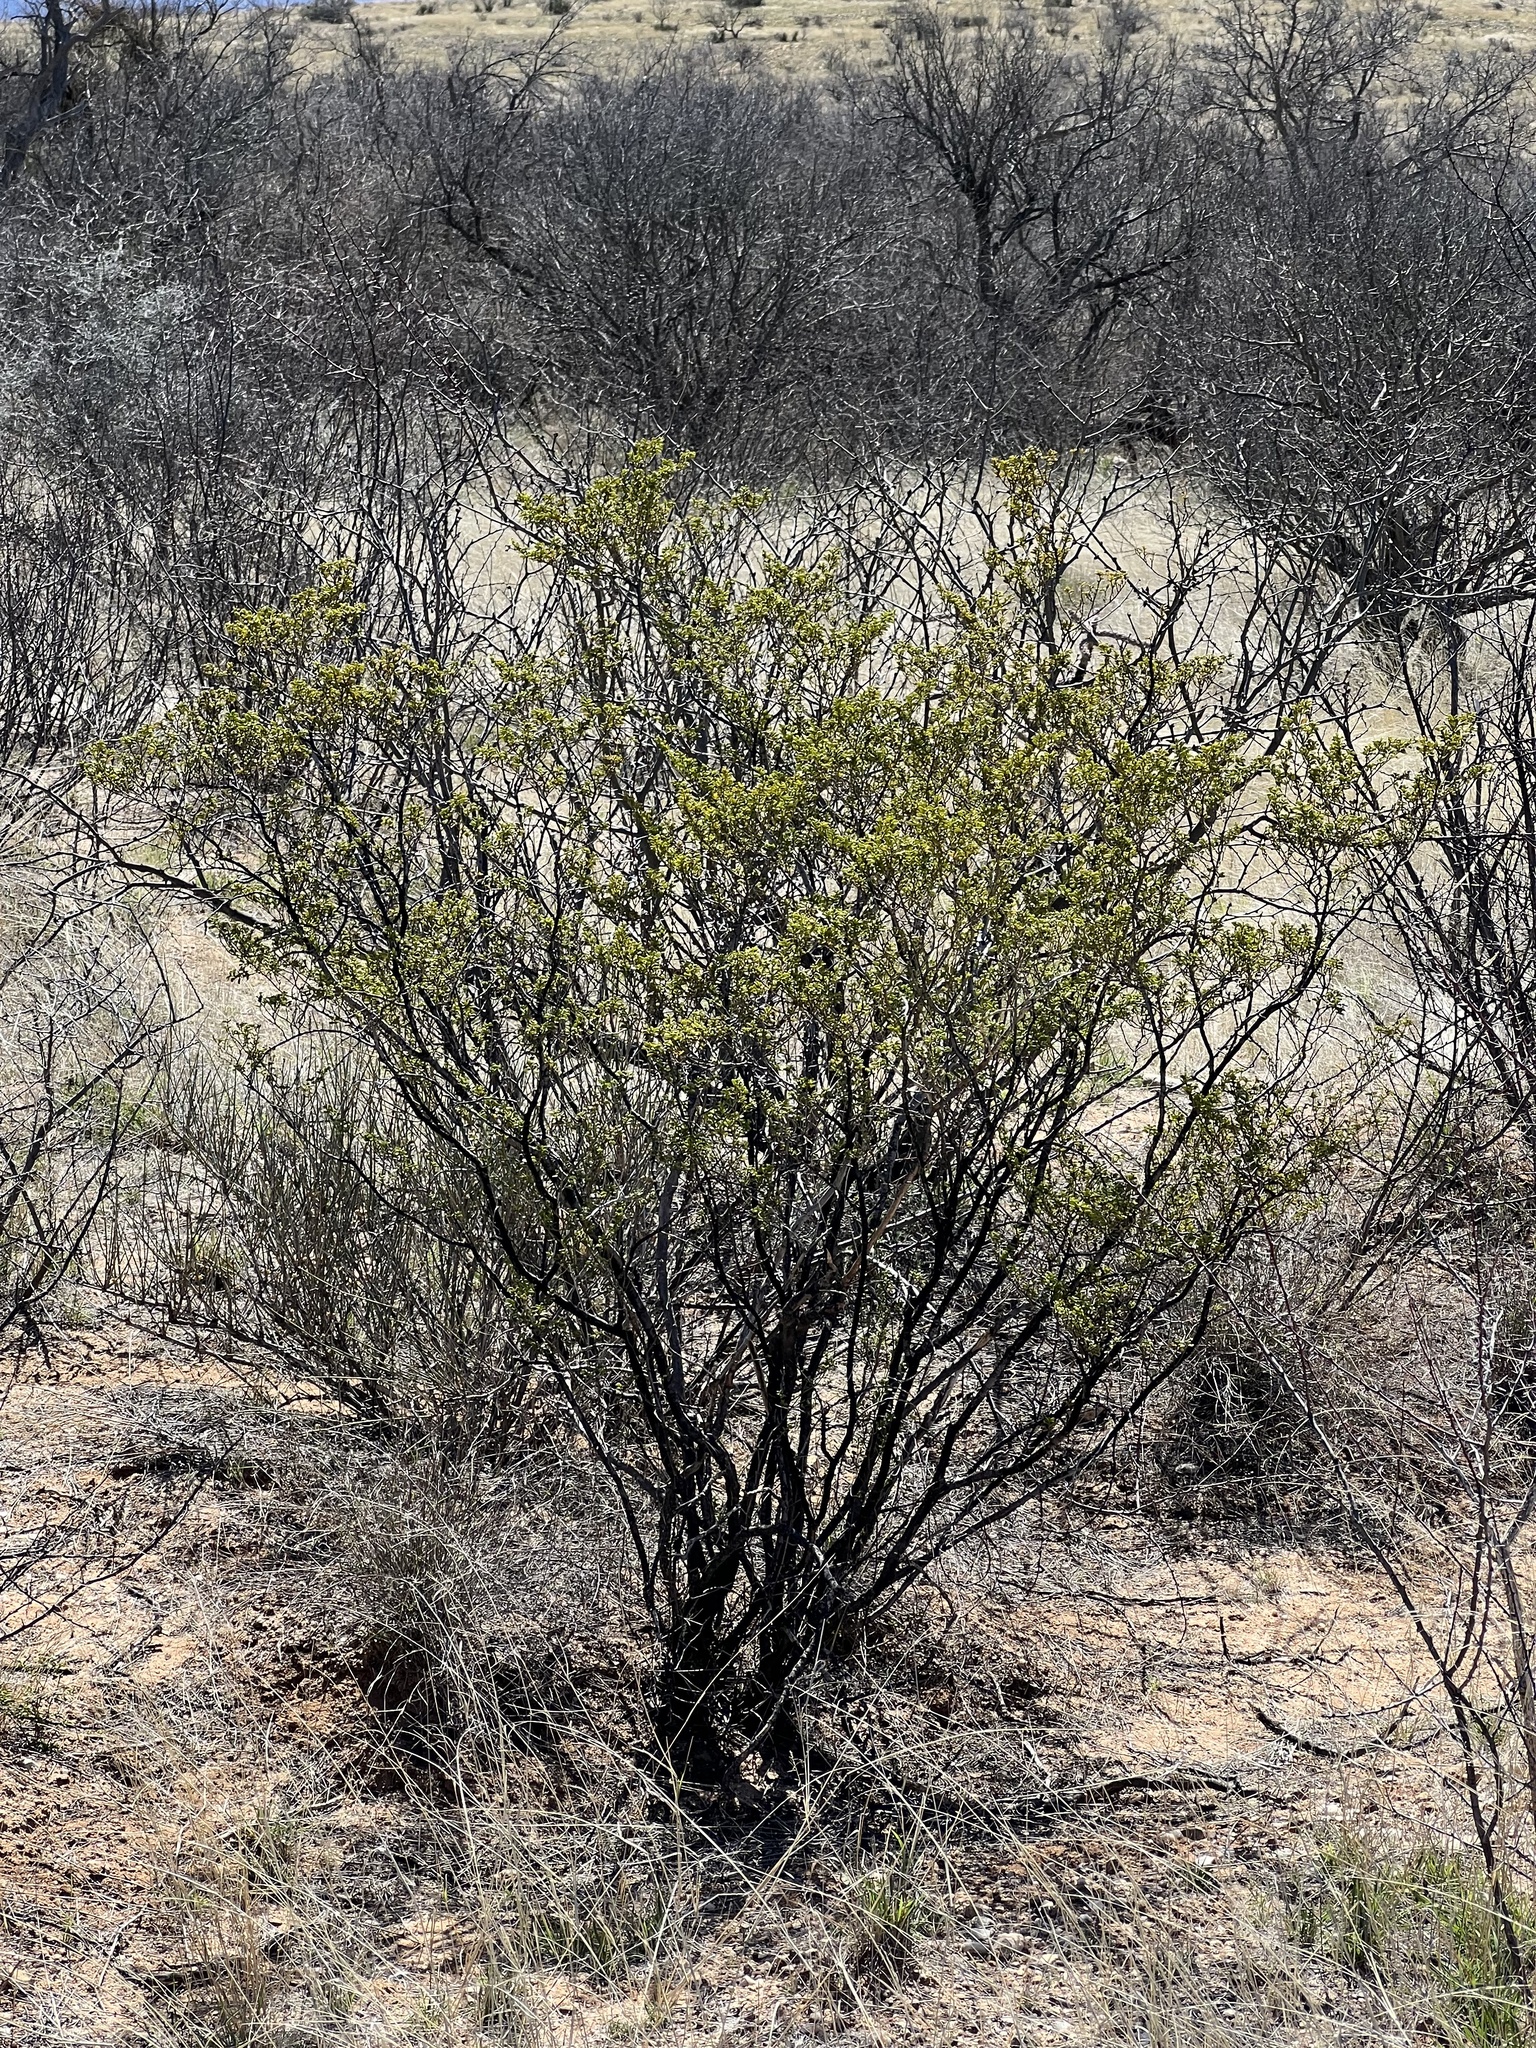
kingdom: Plantae
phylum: Tracheophyta
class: Magnoliopsida
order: Zygophyllales
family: Zygophyllaceae
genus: Larrea
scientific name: Larrea tridentata
